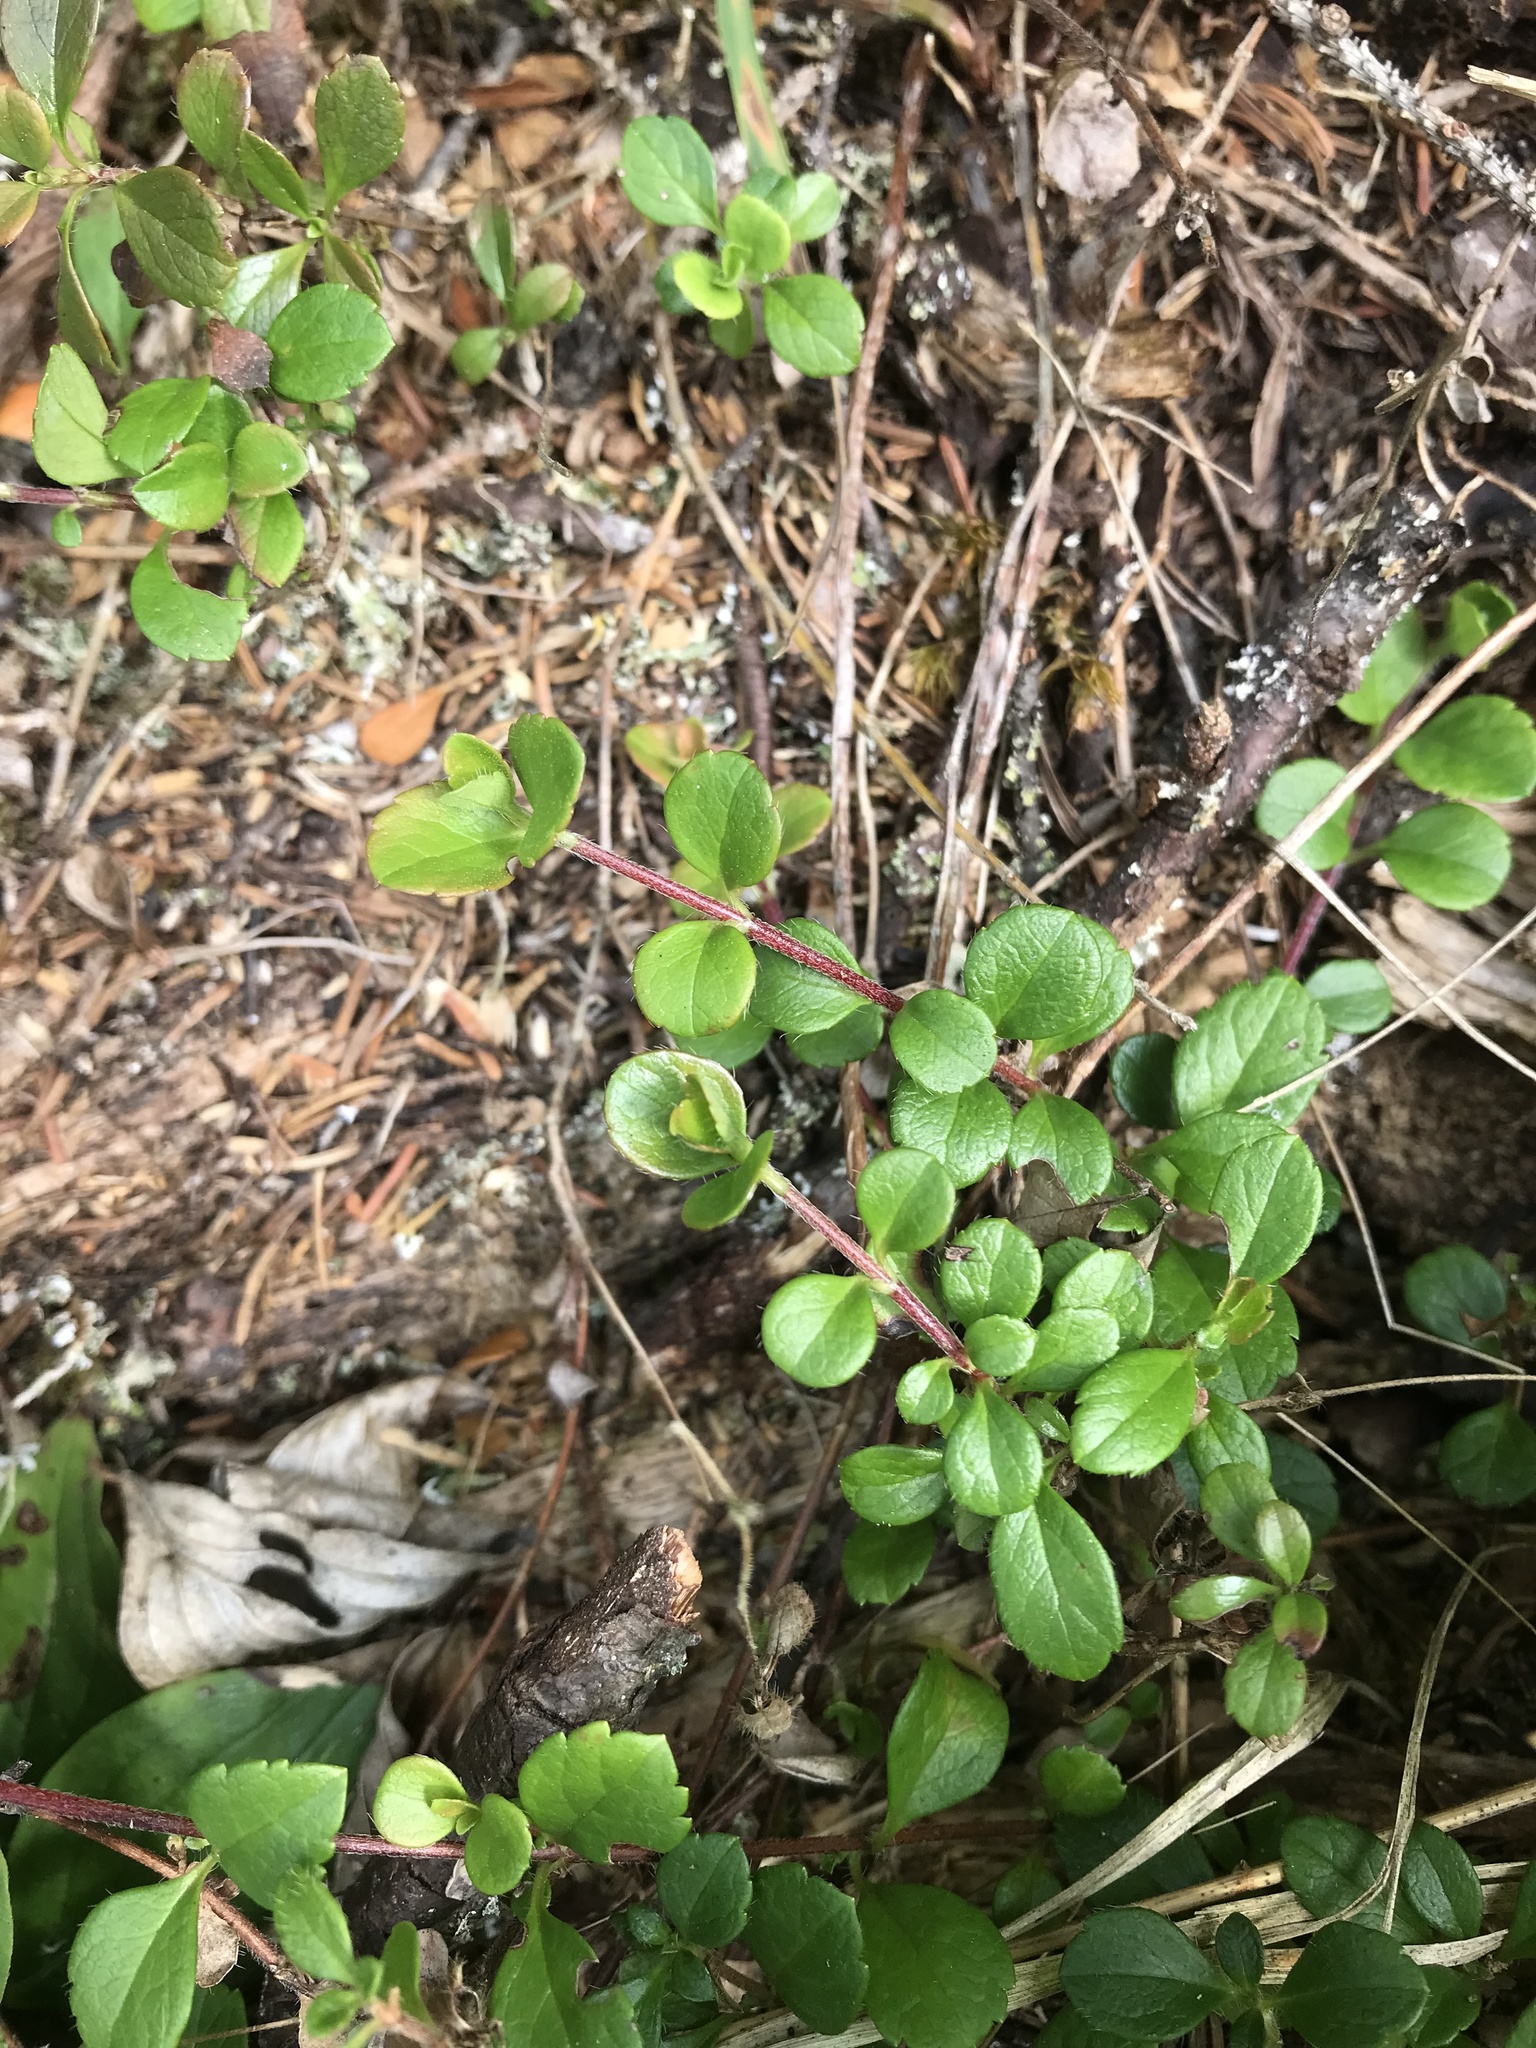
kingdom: Plantae
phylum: Tracheophyta
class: Magnoliopsida
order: Dipsacales
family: Caprifoliaceae
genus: Linnaea
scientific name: Linnaea borealis
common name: Twinflower
